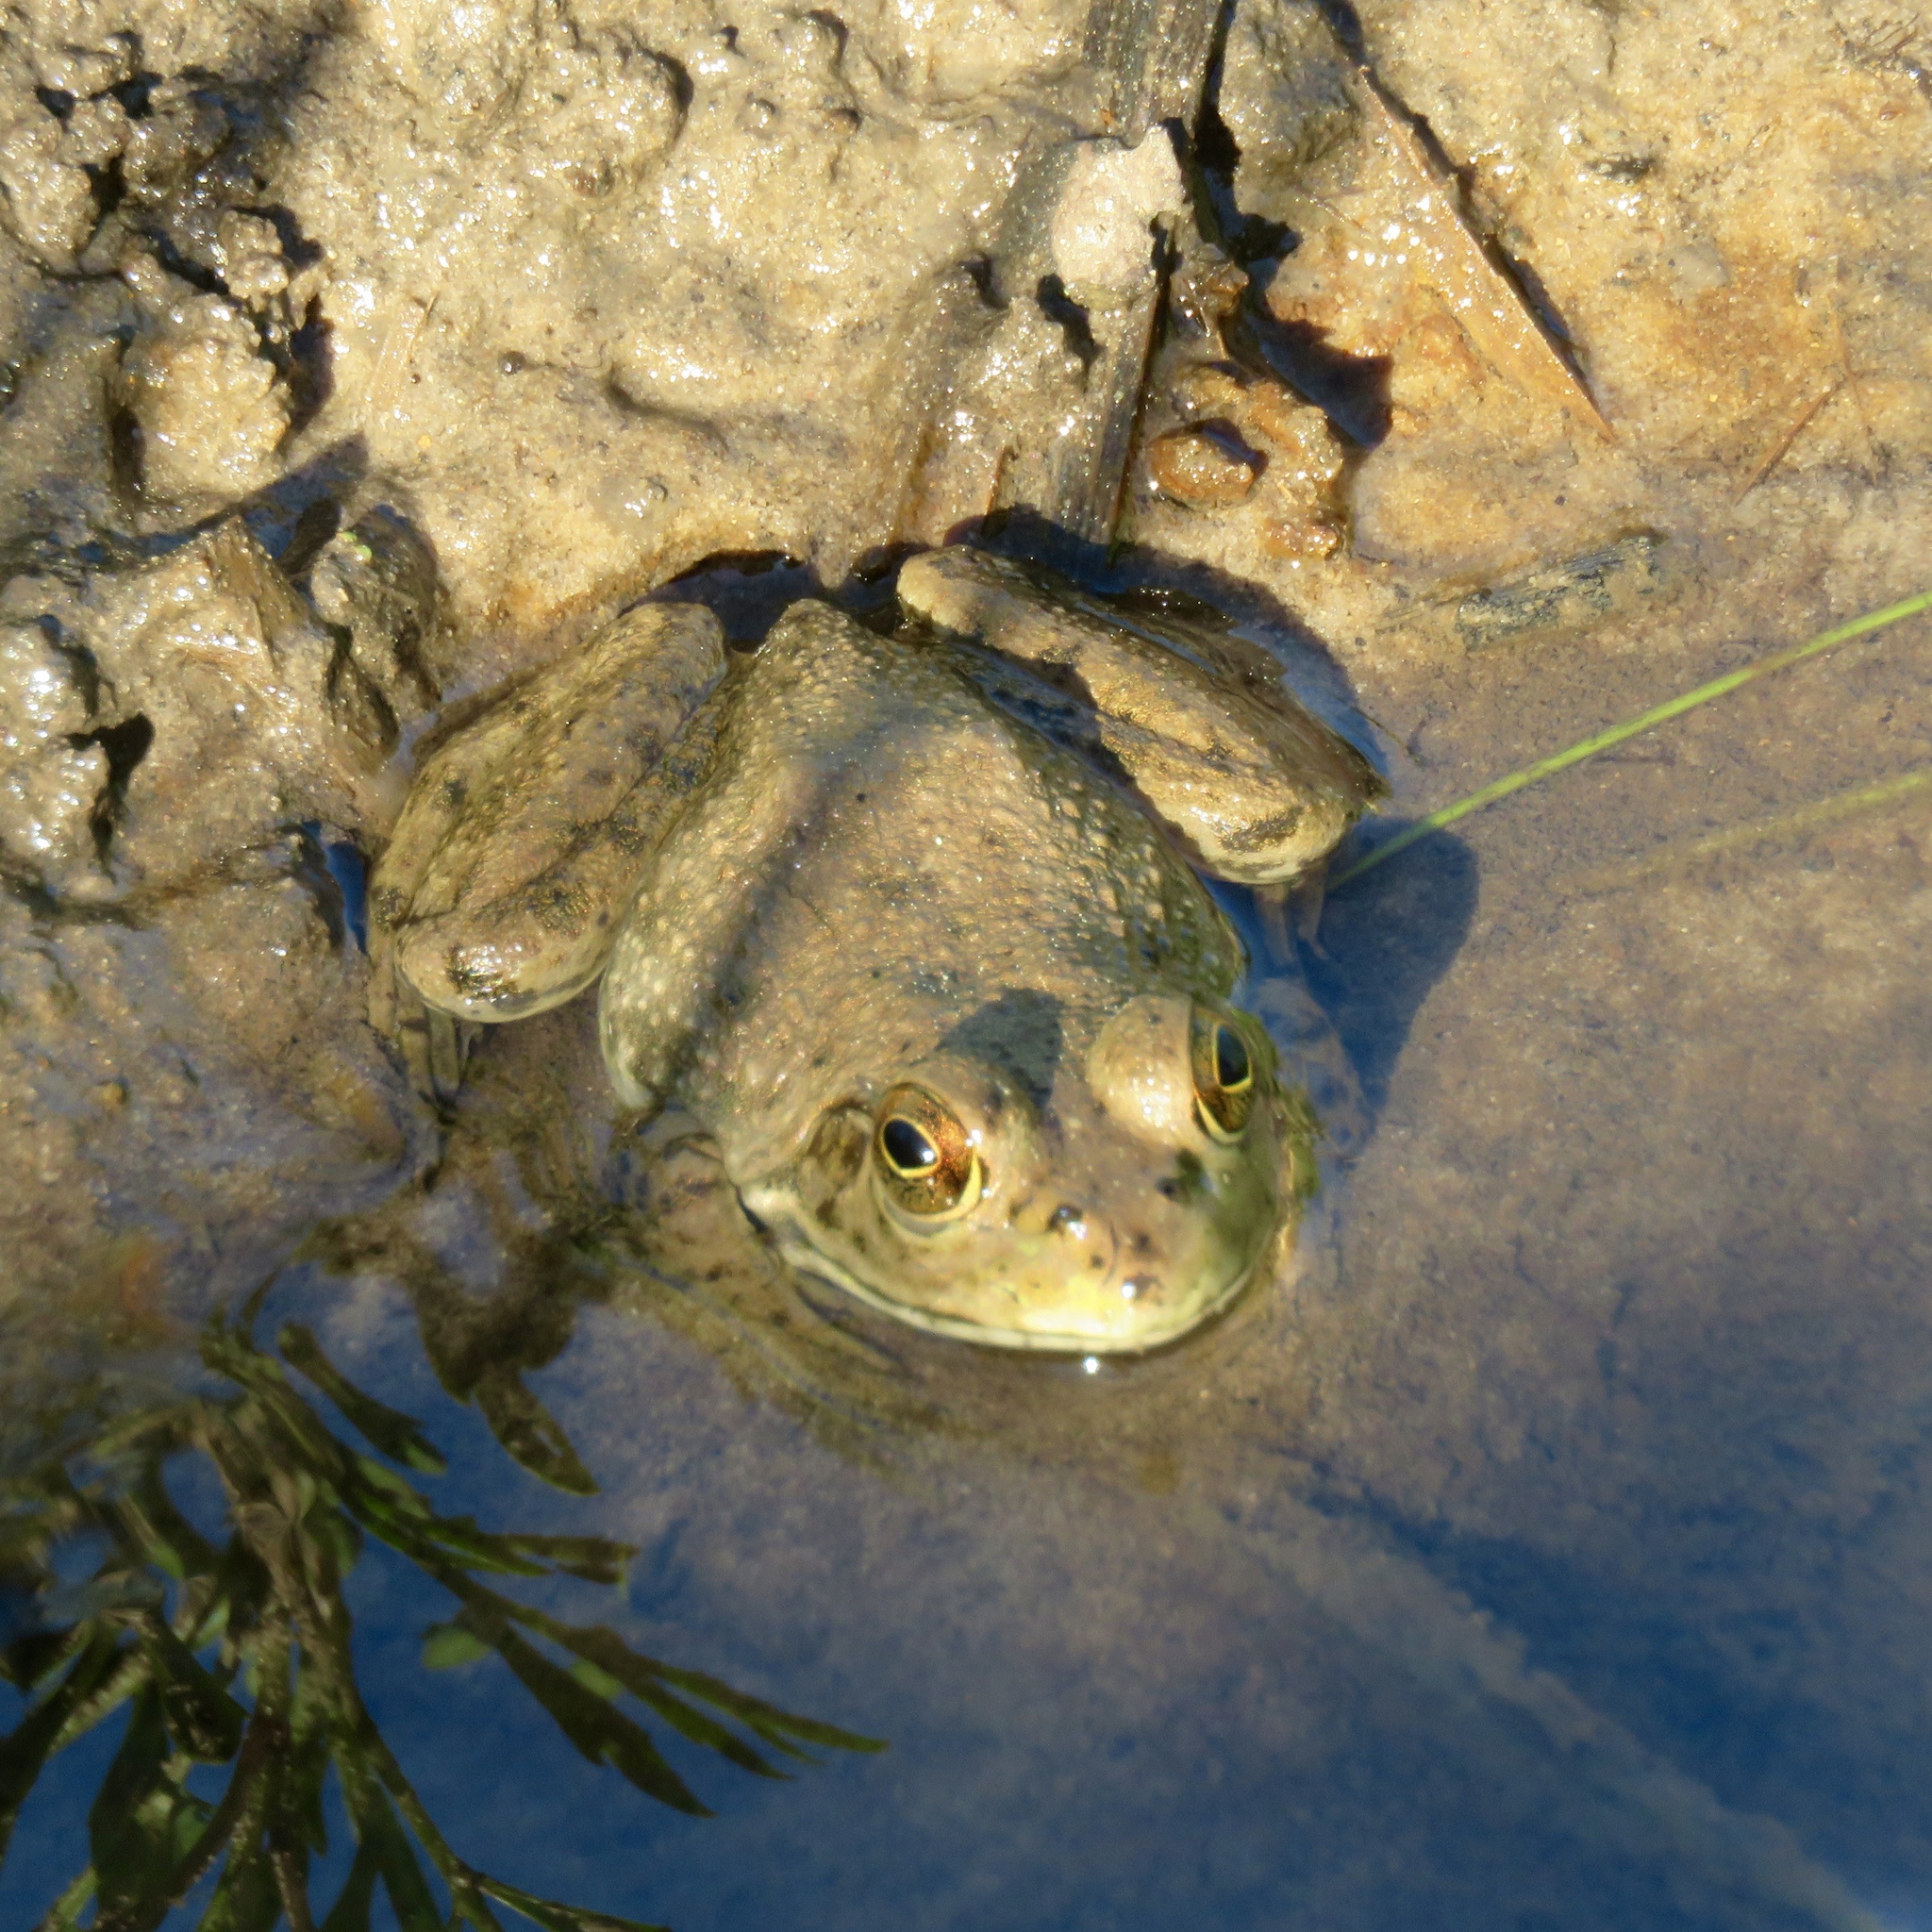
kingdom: Animalia
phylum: Chordata
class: Amphibia
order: Anura
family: Ranidae
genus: Lithobates
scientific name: Lithobates catesbeianus
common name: American bullfrog
